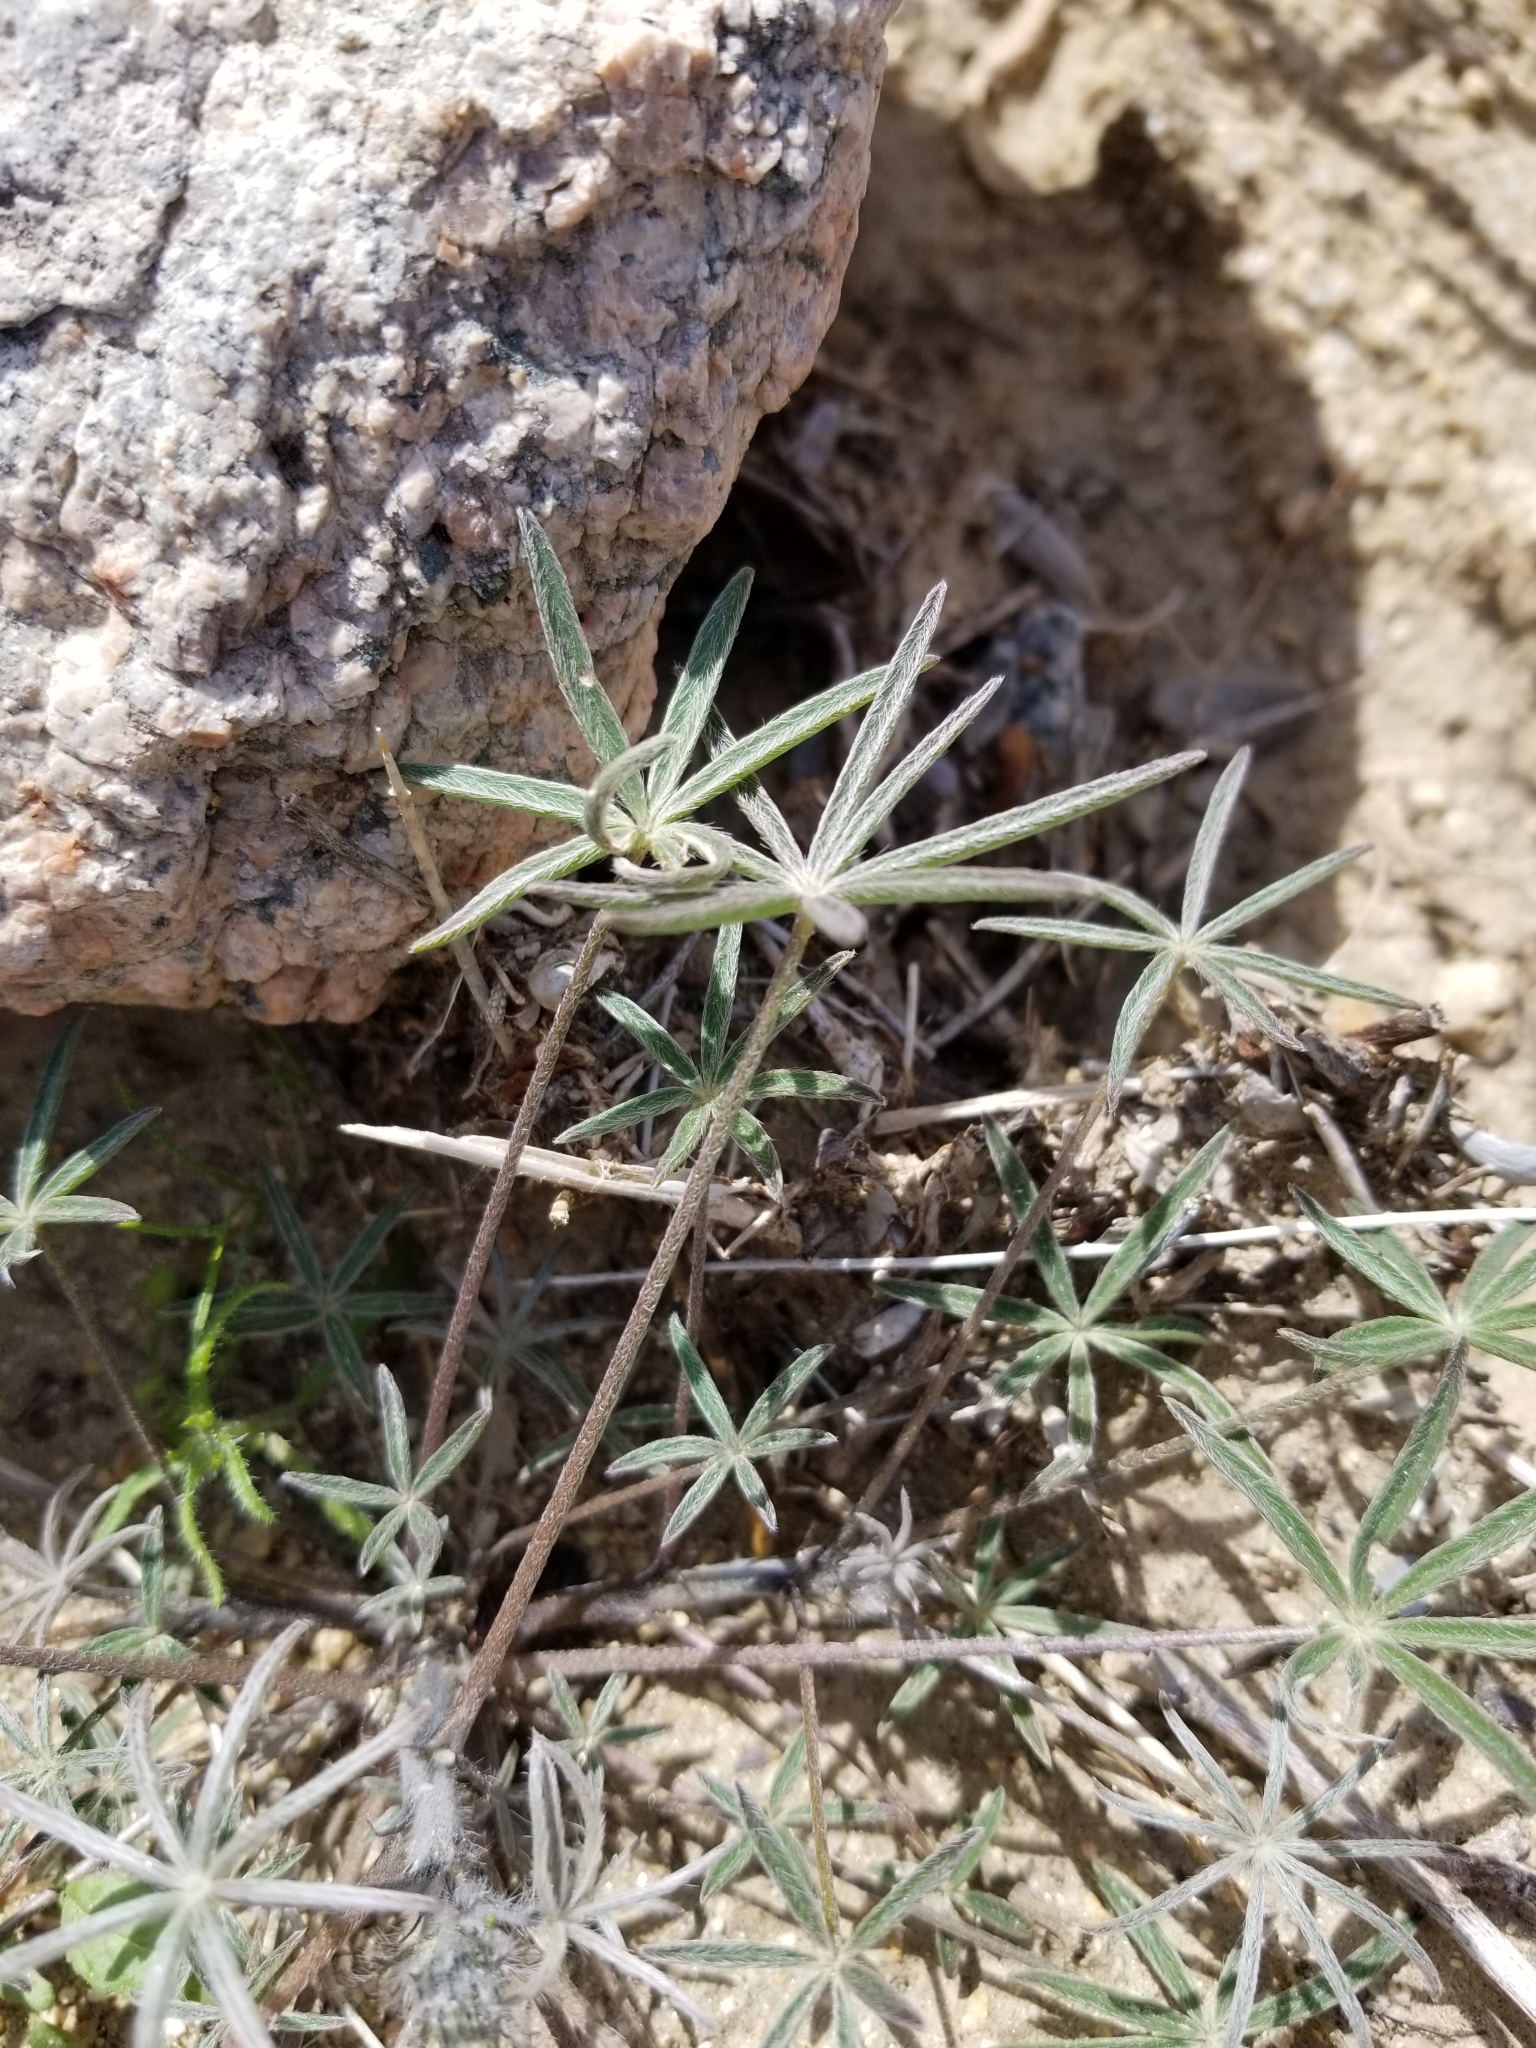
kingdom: Plantae
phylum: Tracheophyta
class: Magnoliopsida
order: Fabales
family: Fabaceae
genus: Lupinus
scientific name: Lupinus sparsiflorus
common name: Coulter's lupine
